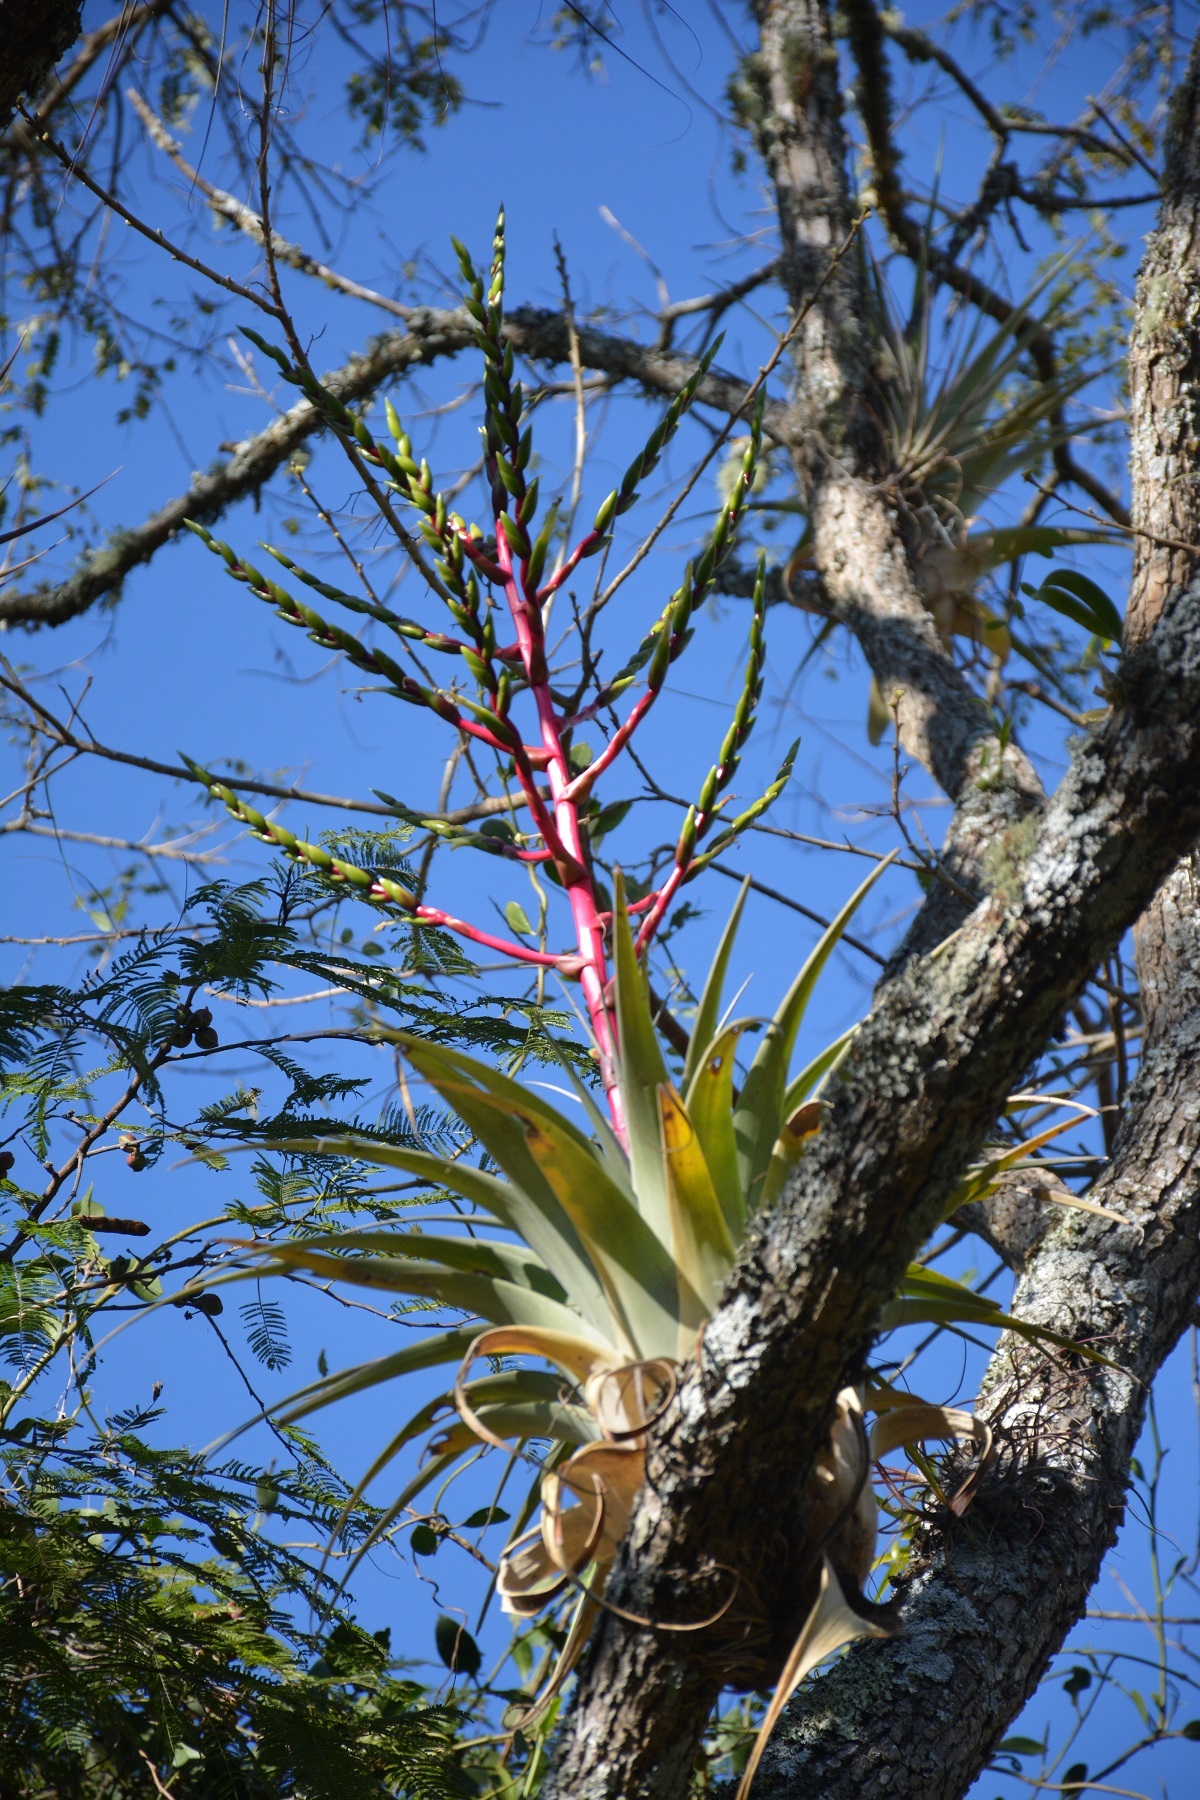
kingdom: Plantae
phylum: Tracheophyta
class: Liliopsida
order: Poales
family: Bromeliaceae
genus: Tillandsia
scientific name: Tillandsia comitanensis
